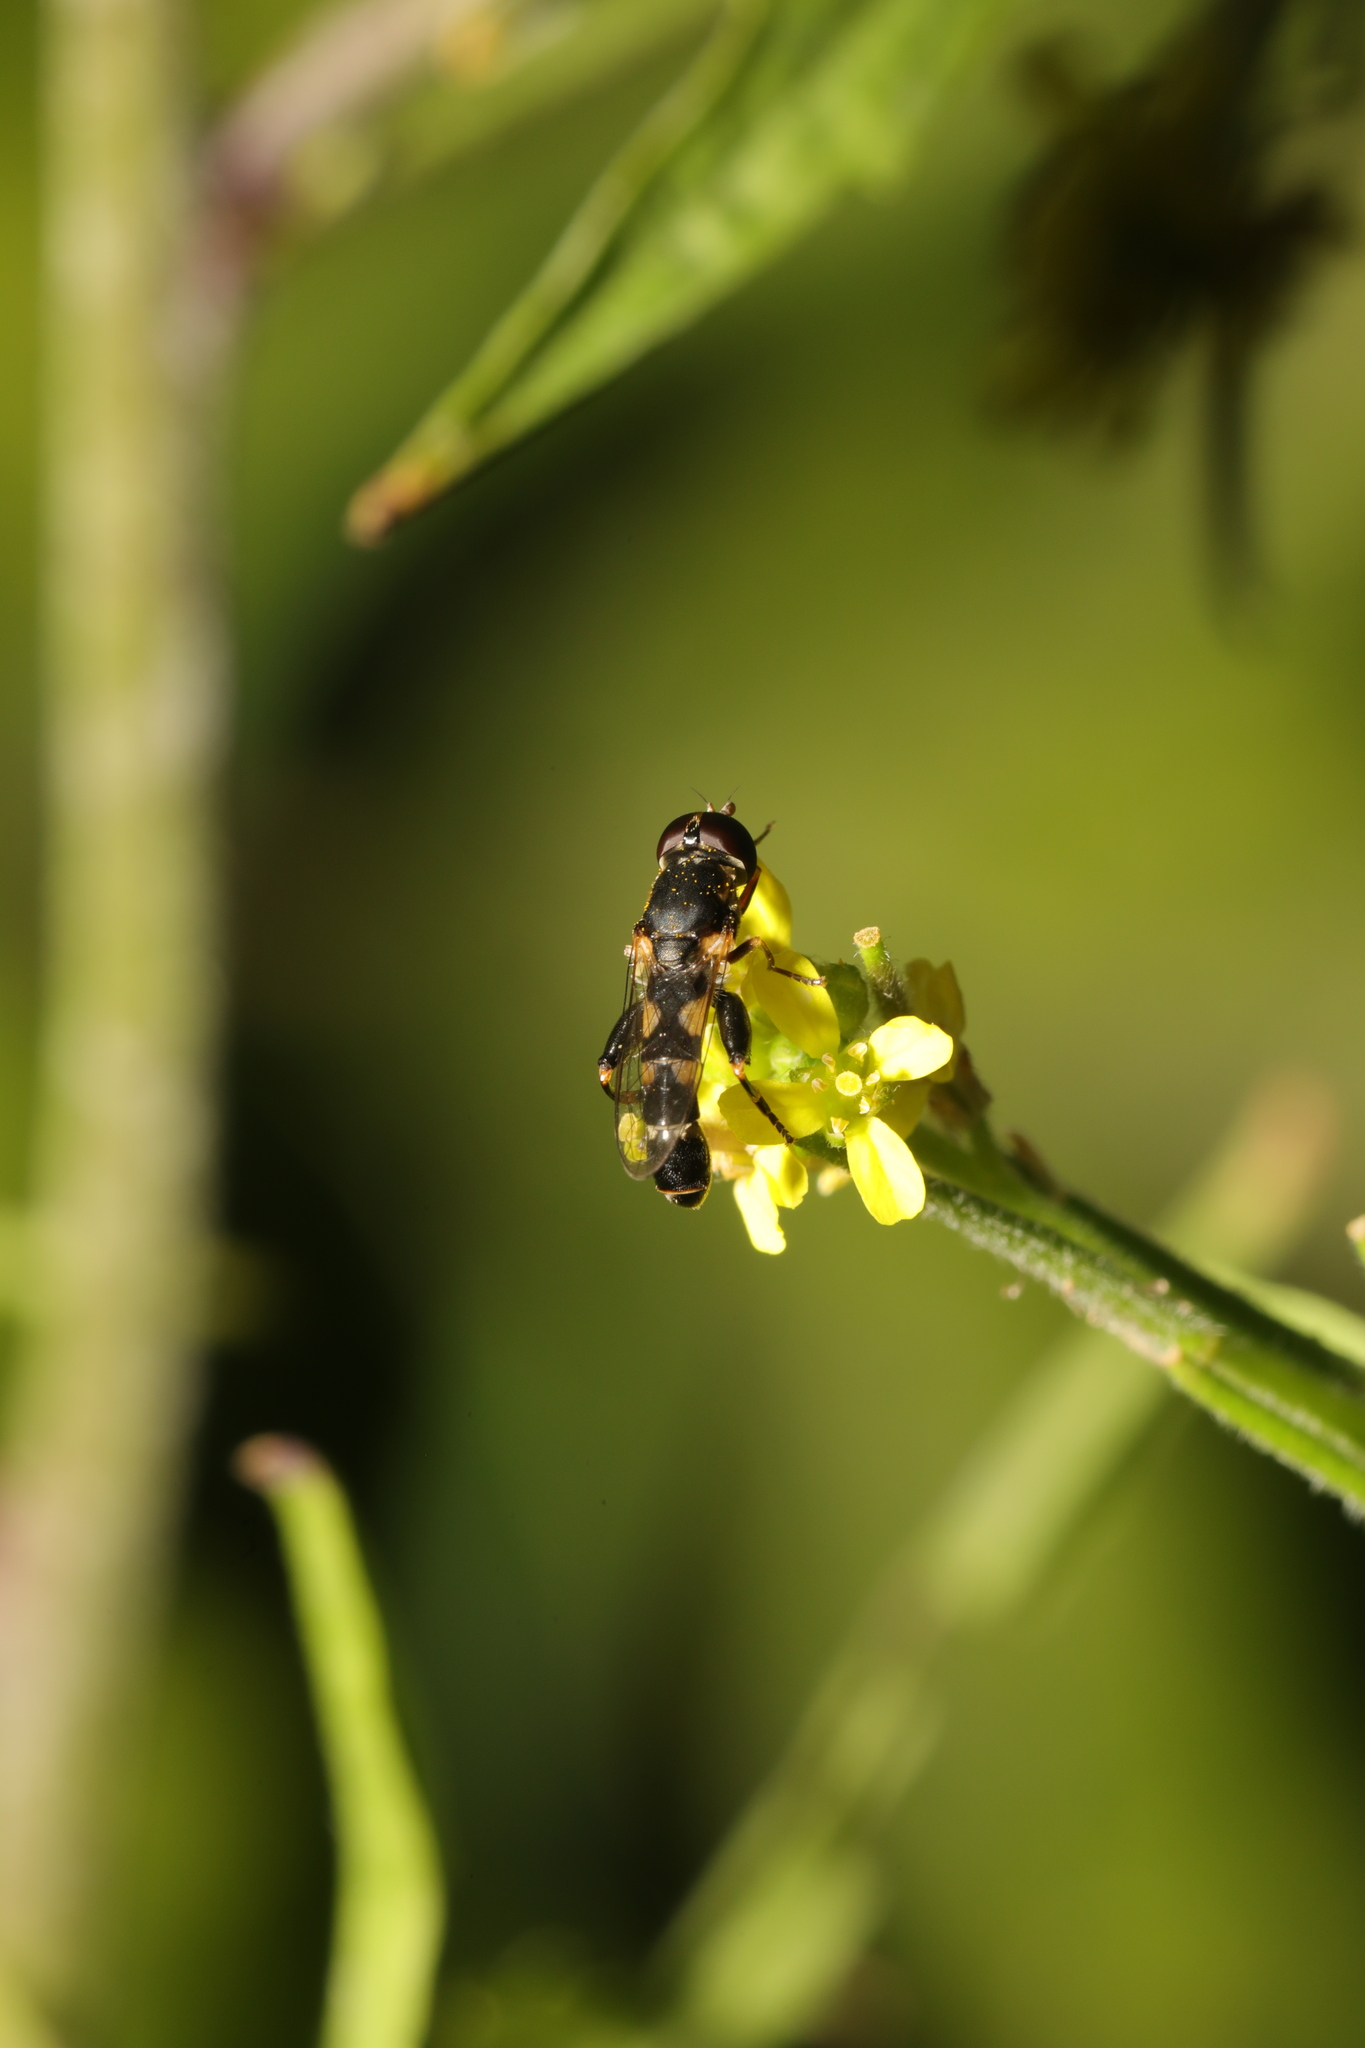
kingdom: Animalia
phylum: Arthropoda
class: Insecta
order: Diptera
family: Syrphidae
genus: Syritta
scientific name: Syritta pipiens
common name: Hover fly
